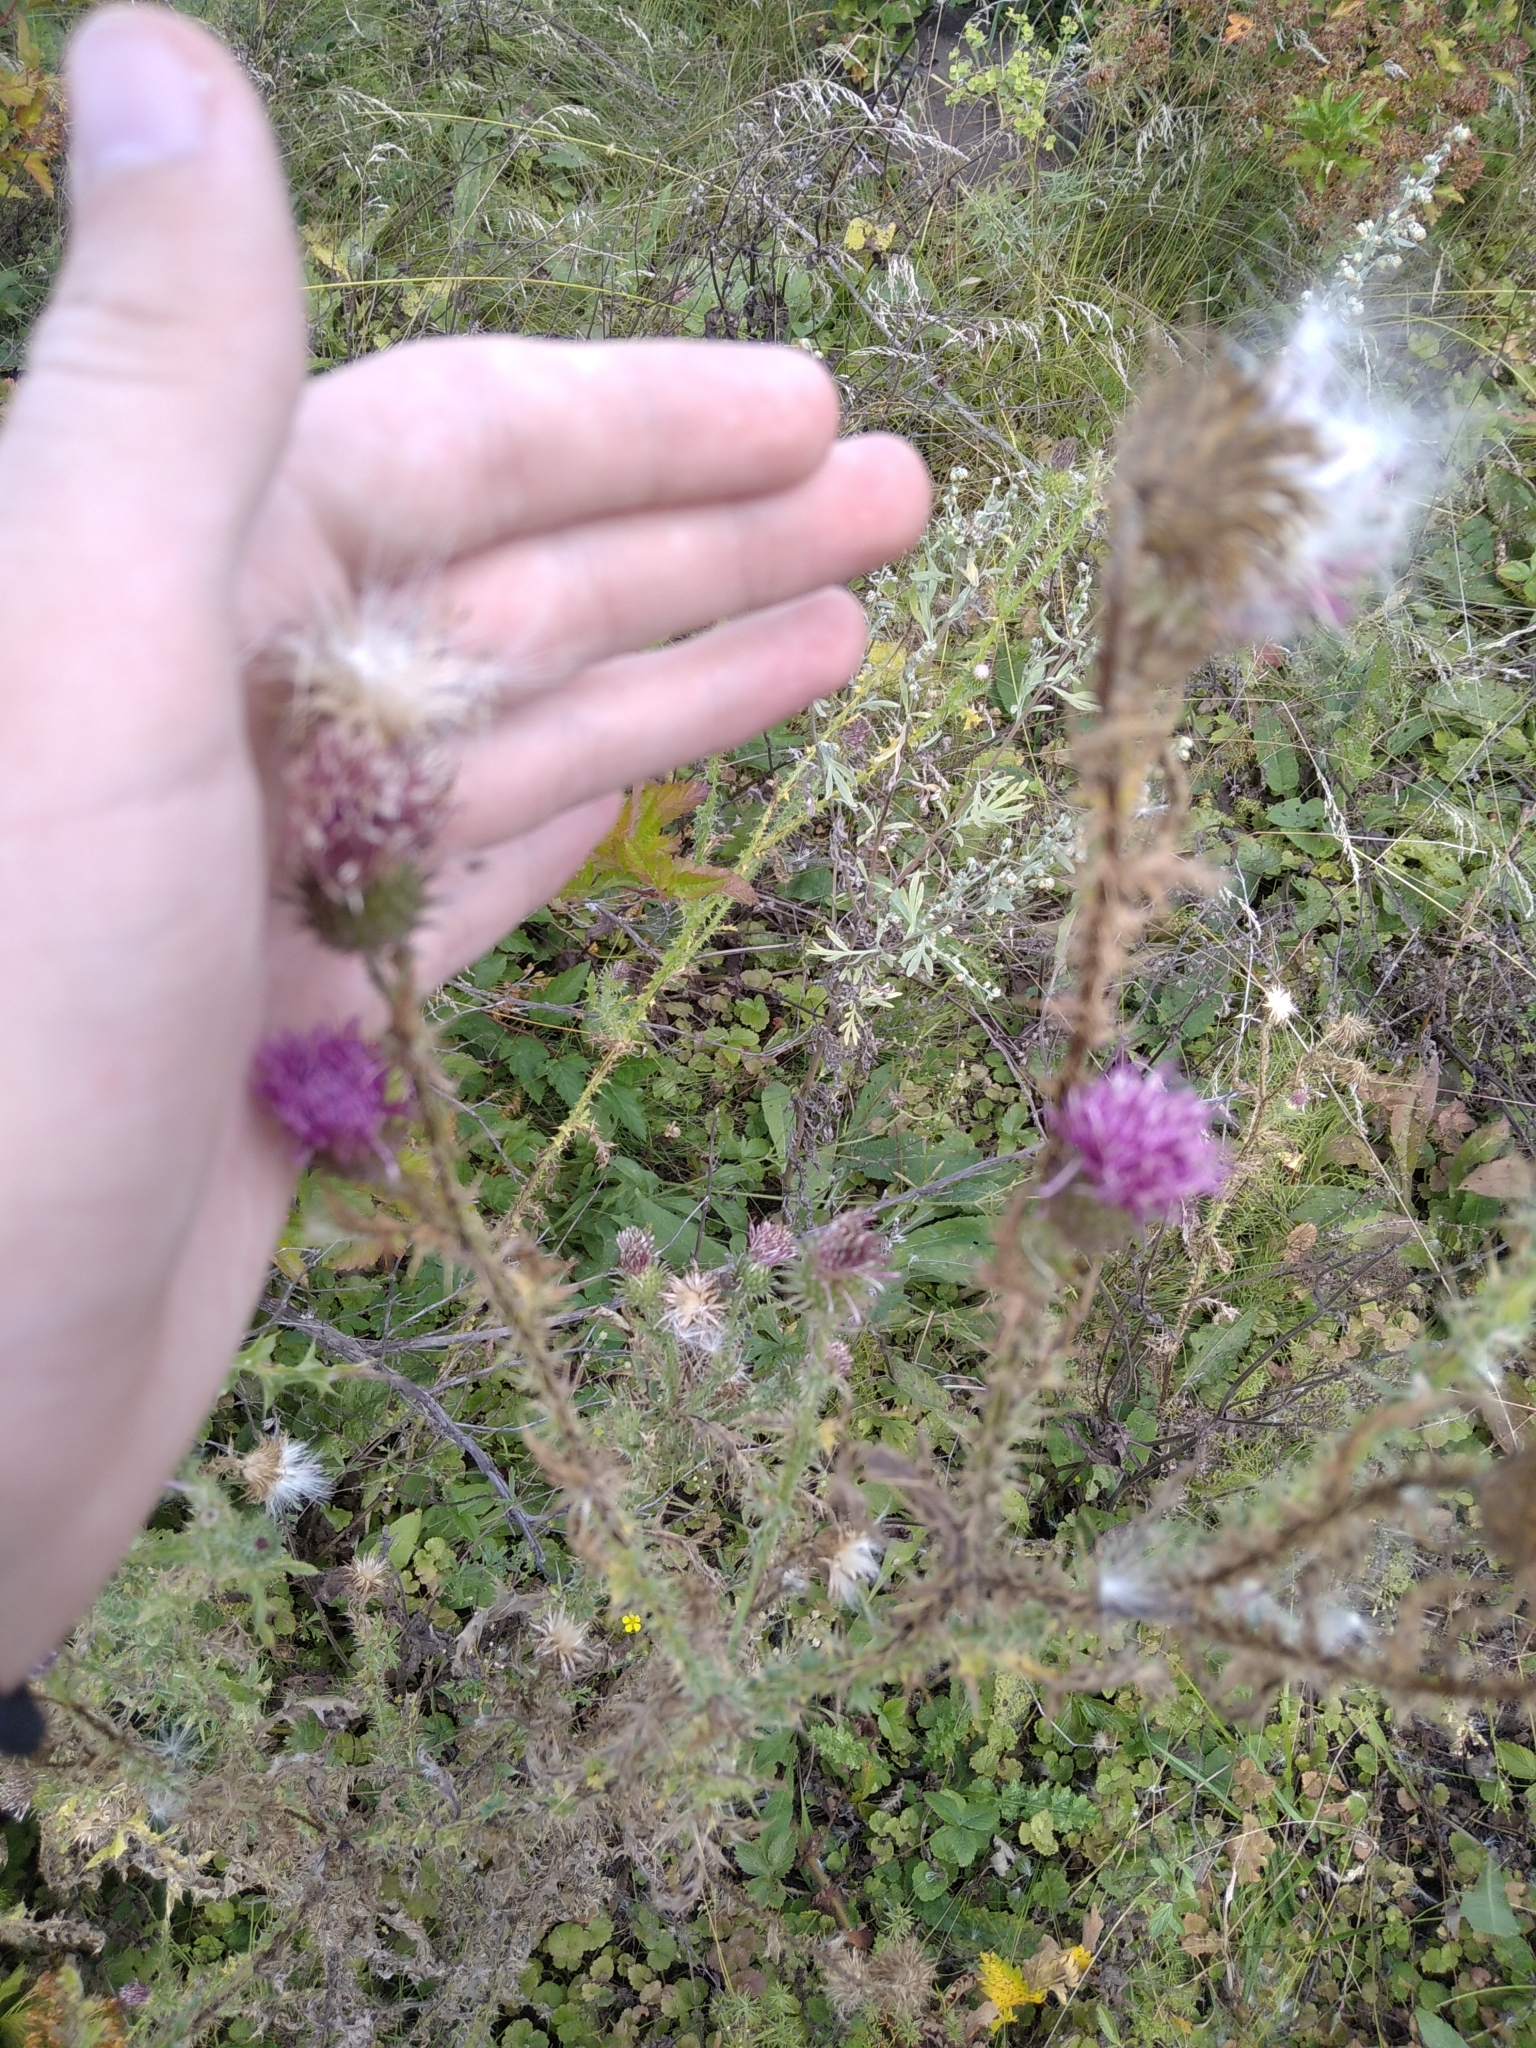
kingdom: Plantae
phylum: Tracheophyta
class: Magnoliopsida
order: Asterales
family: Asteraceae
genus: Carduus
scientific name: Carduus acanthoides
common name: Plumeless thistle
